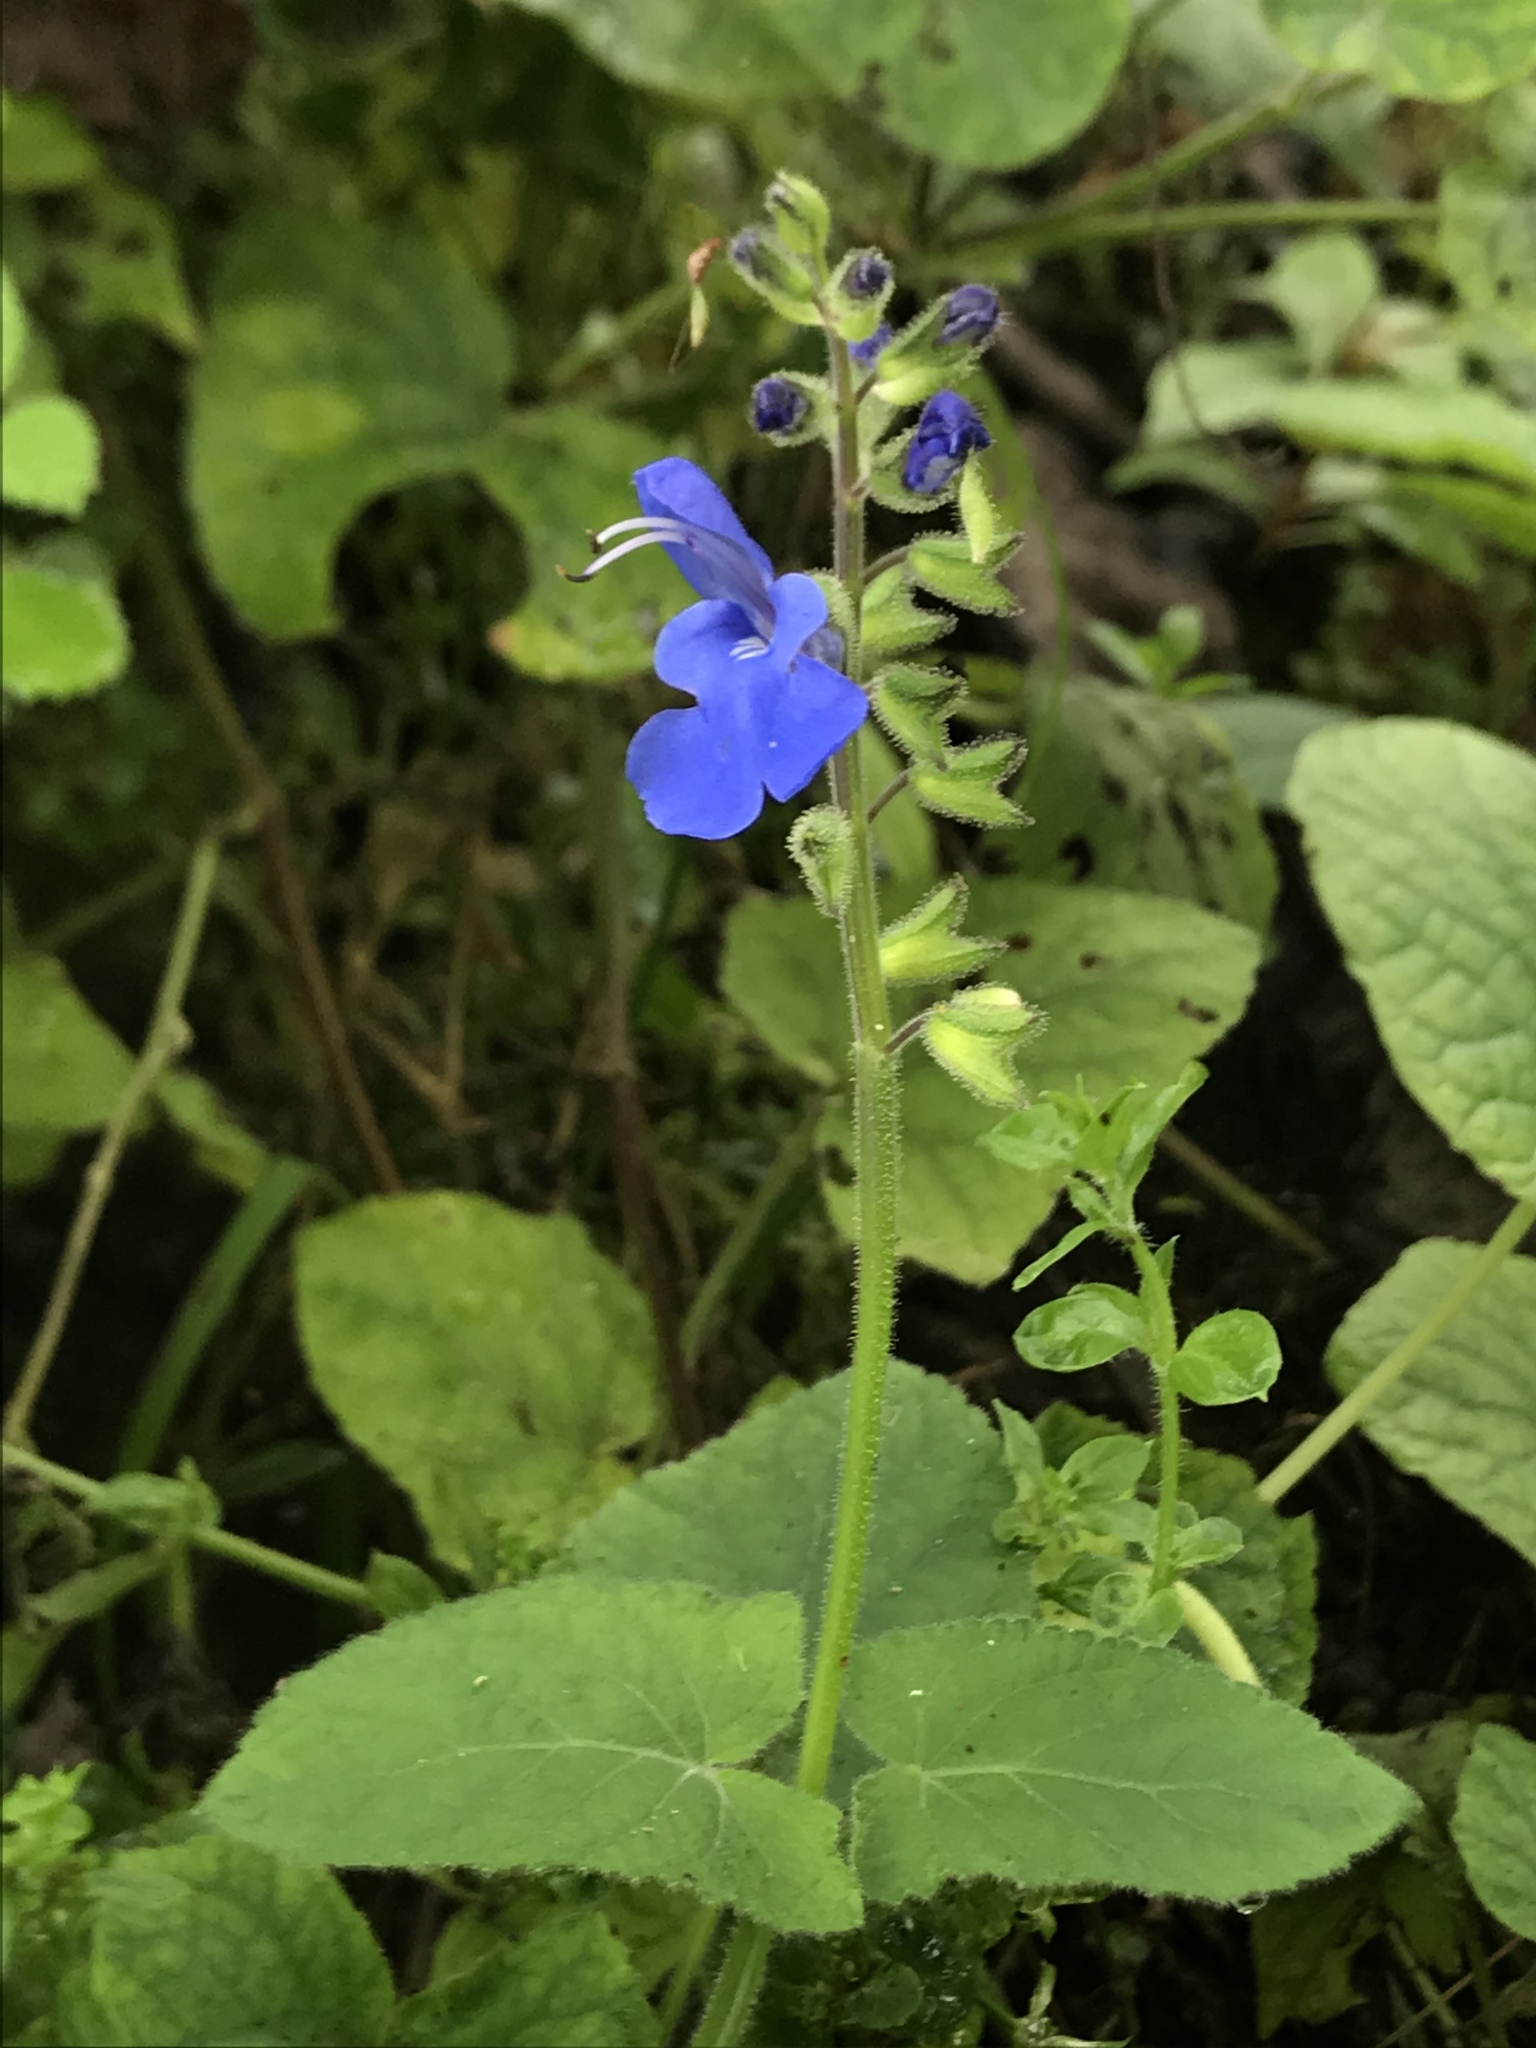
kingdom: Plantae
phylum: Tracheophyta
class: Magnoliopsida
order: Lamiales
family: Lamiaceae
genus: Salvia
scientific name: Salvia scutellarioides
